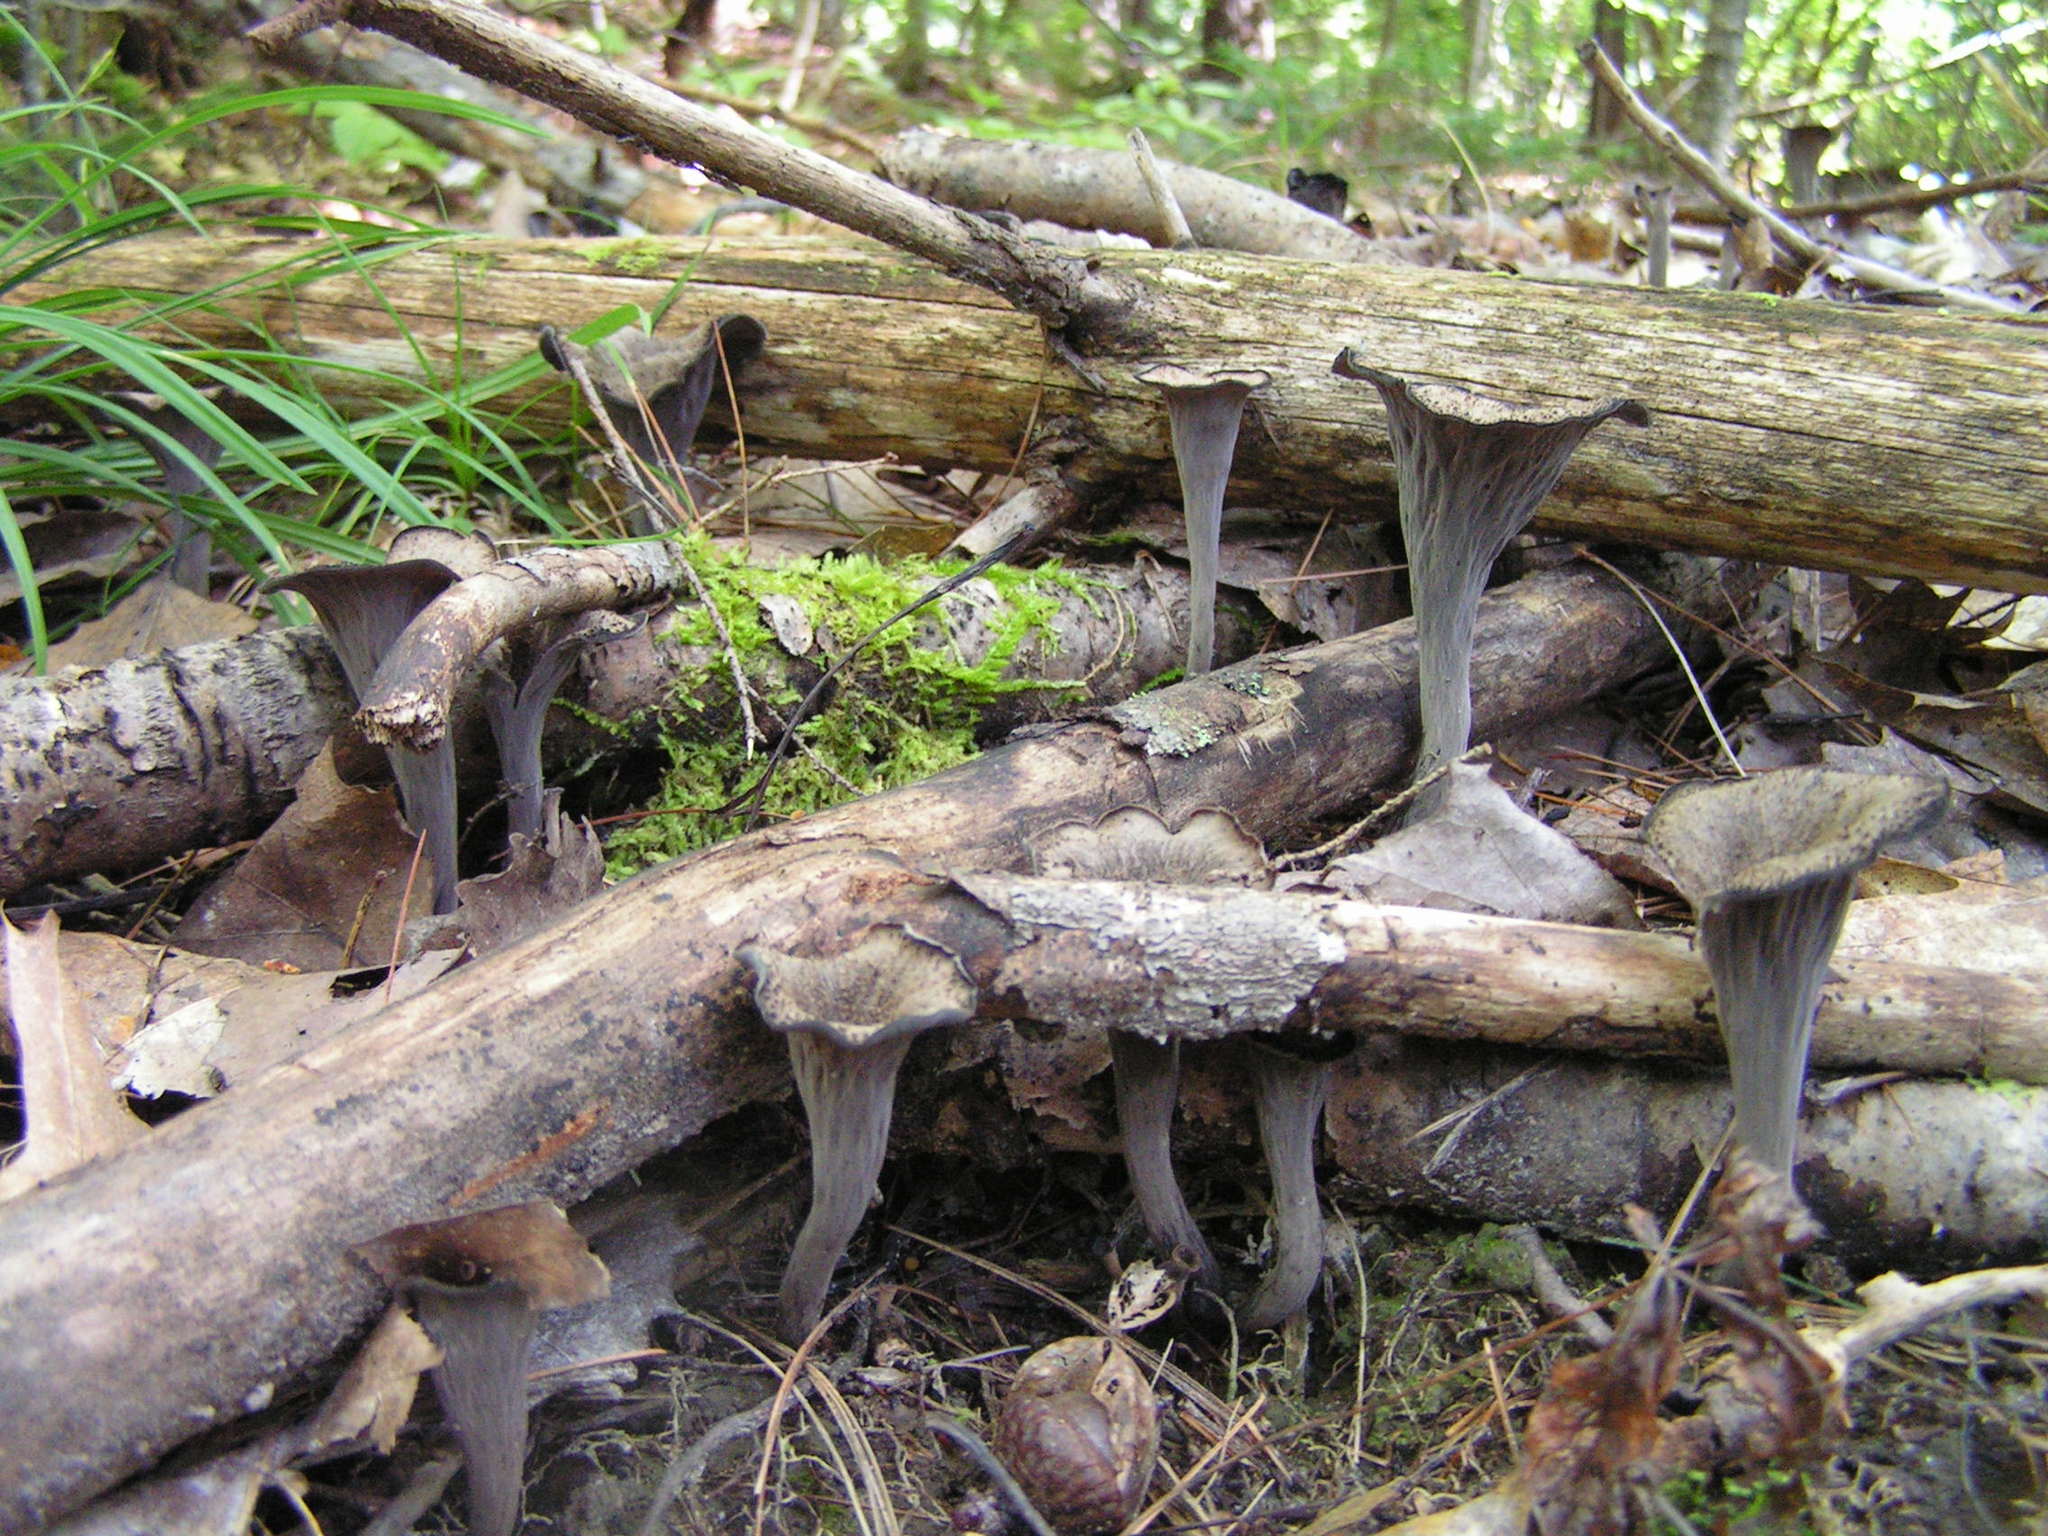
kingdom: Fungi
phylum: Basidiomycota
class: Agaricomycetes
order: Cantharellales
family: Hydnaceae
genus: Craterellus
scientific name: Craterellus cornucopioides
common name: Horn of plenty
